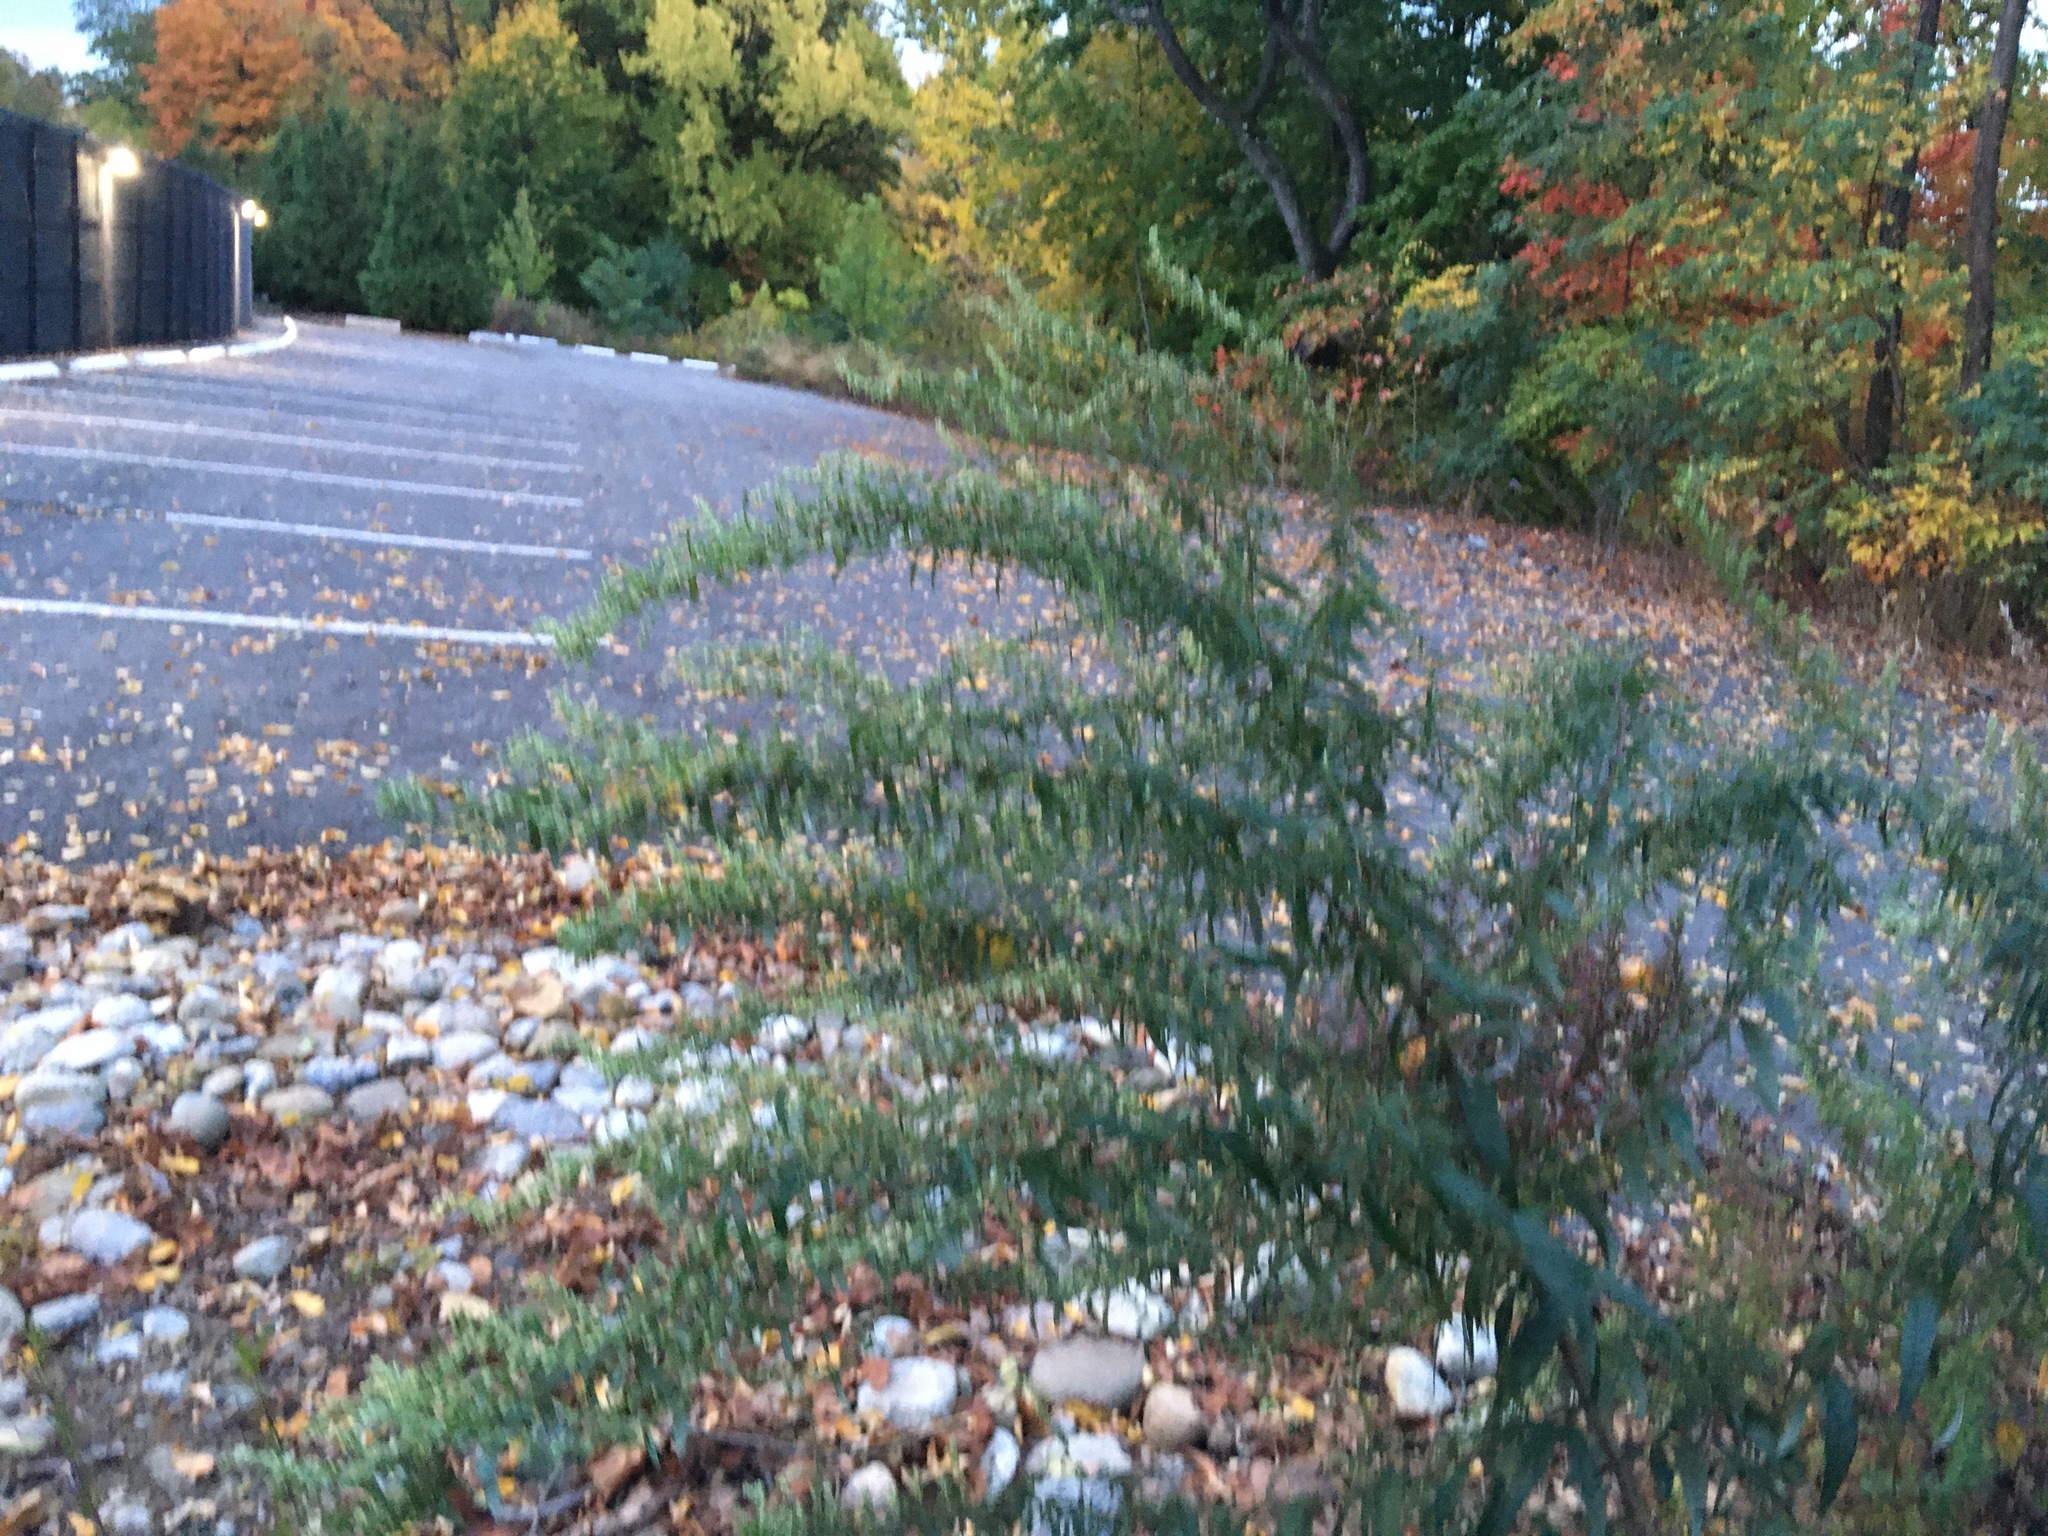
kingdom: Plantae
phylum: Tracheophyta
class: Magnoliopsida
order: Asterales
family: Asteraceae
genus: Artemisia
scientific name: Artemisia vulgaris
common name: Mugwort
